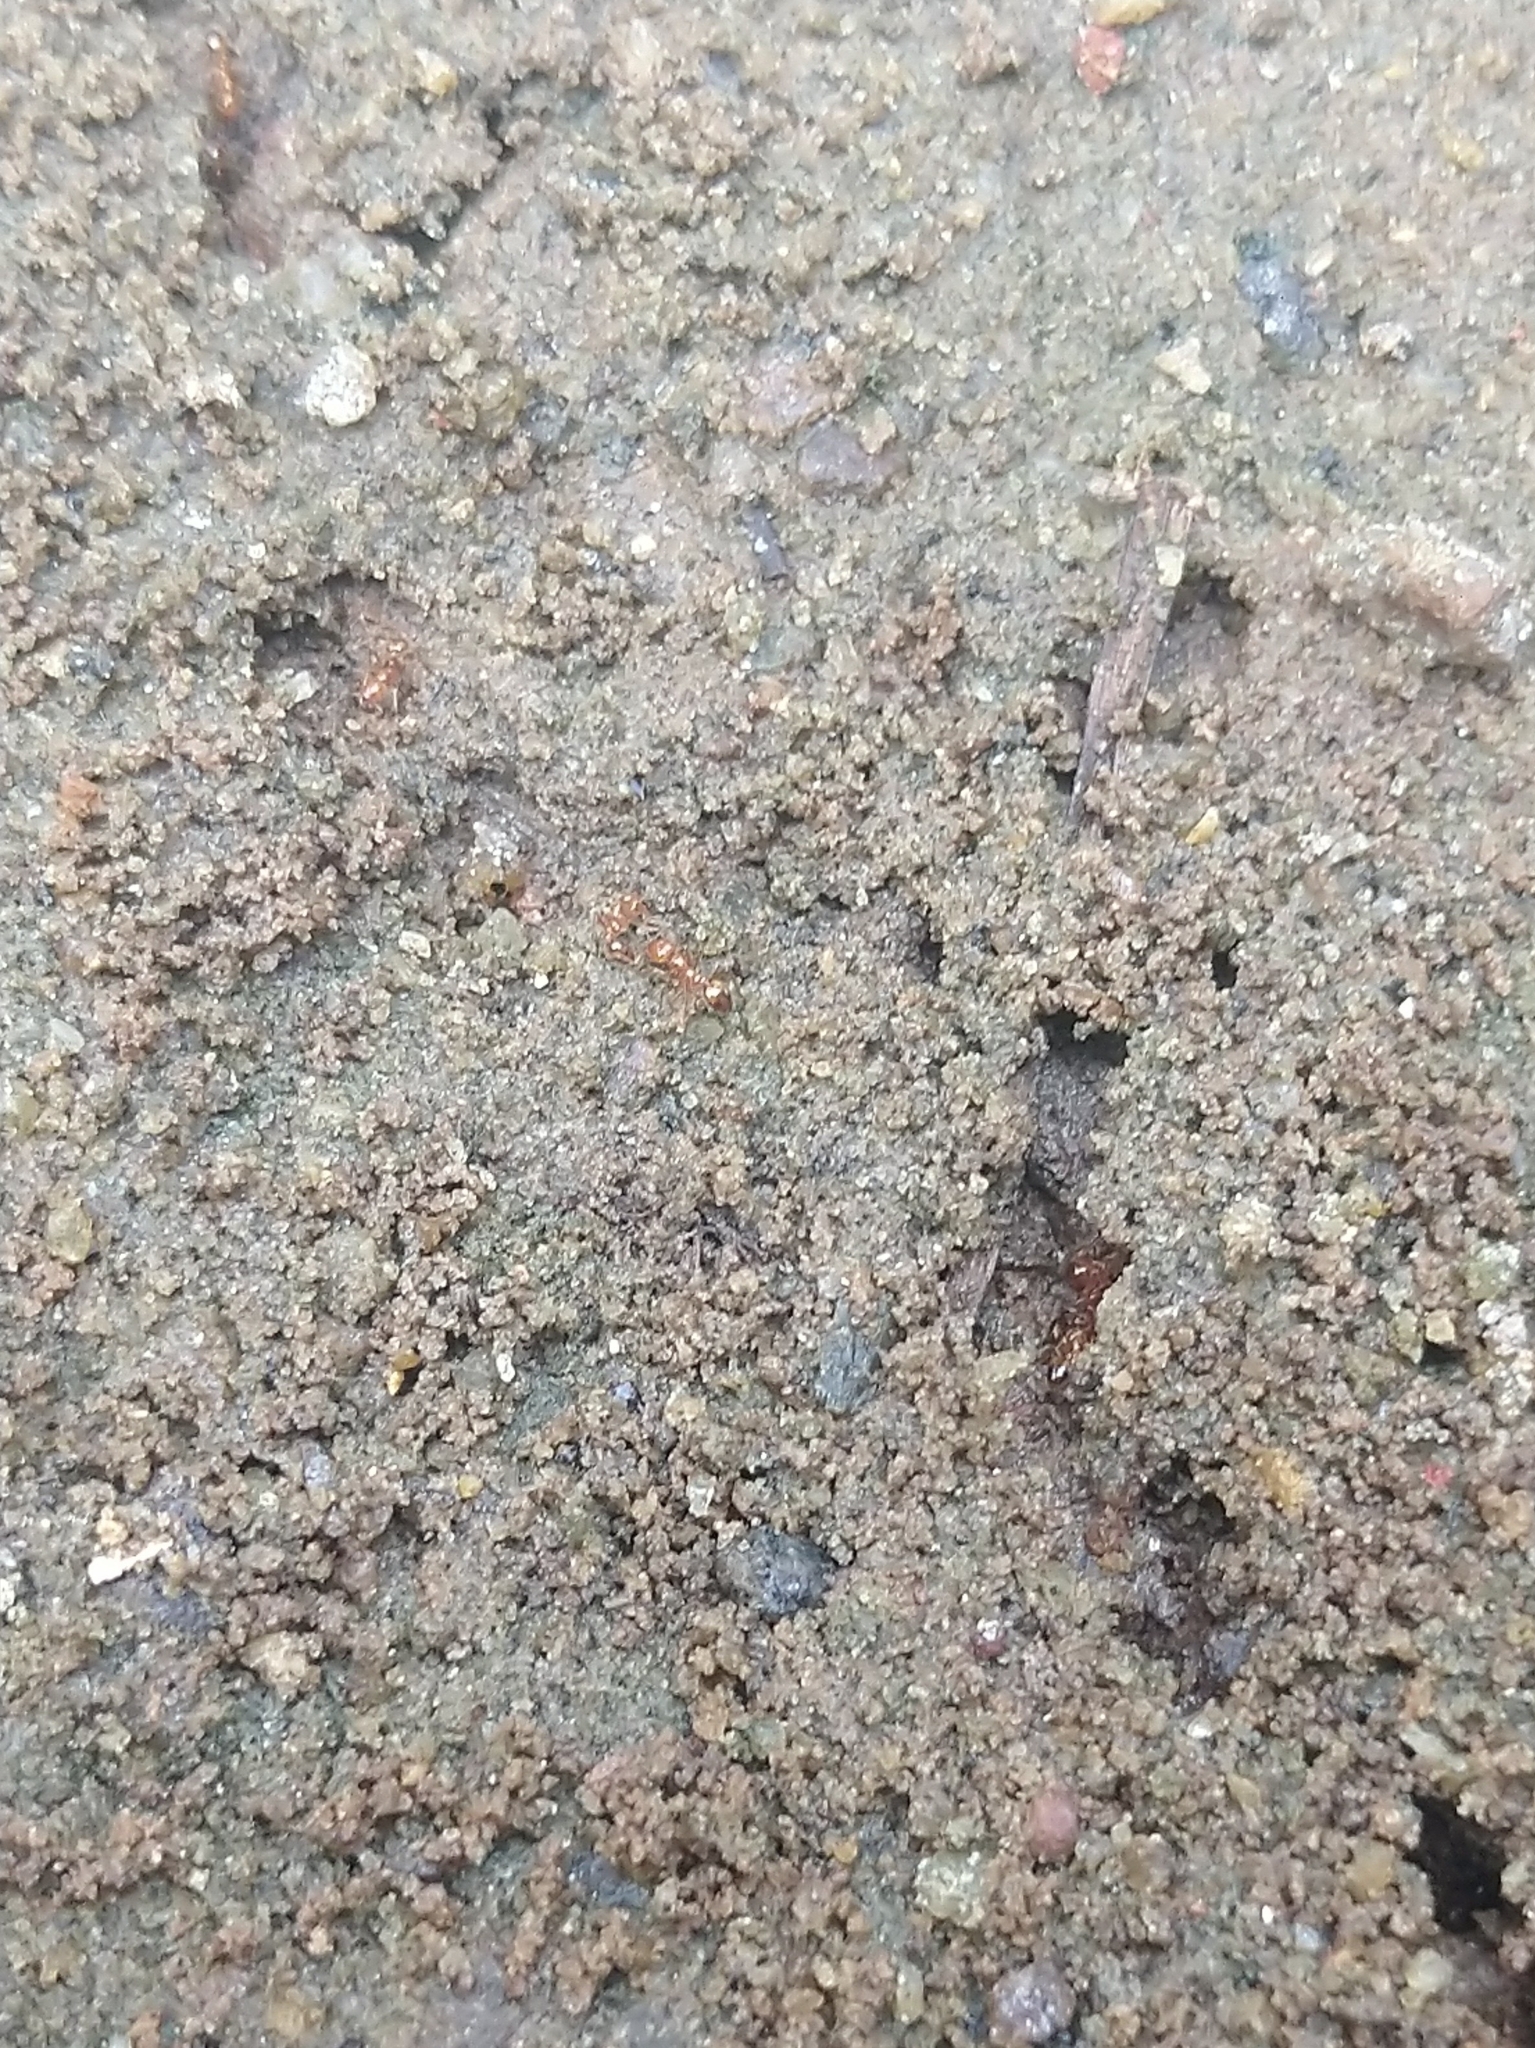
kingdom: Animalia
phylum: Arthropoda
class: Insecta
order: Hymenoptera
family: Formicidae
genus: Solenopsis
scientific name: Solenopsis geminata
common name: Tropical fire ant
